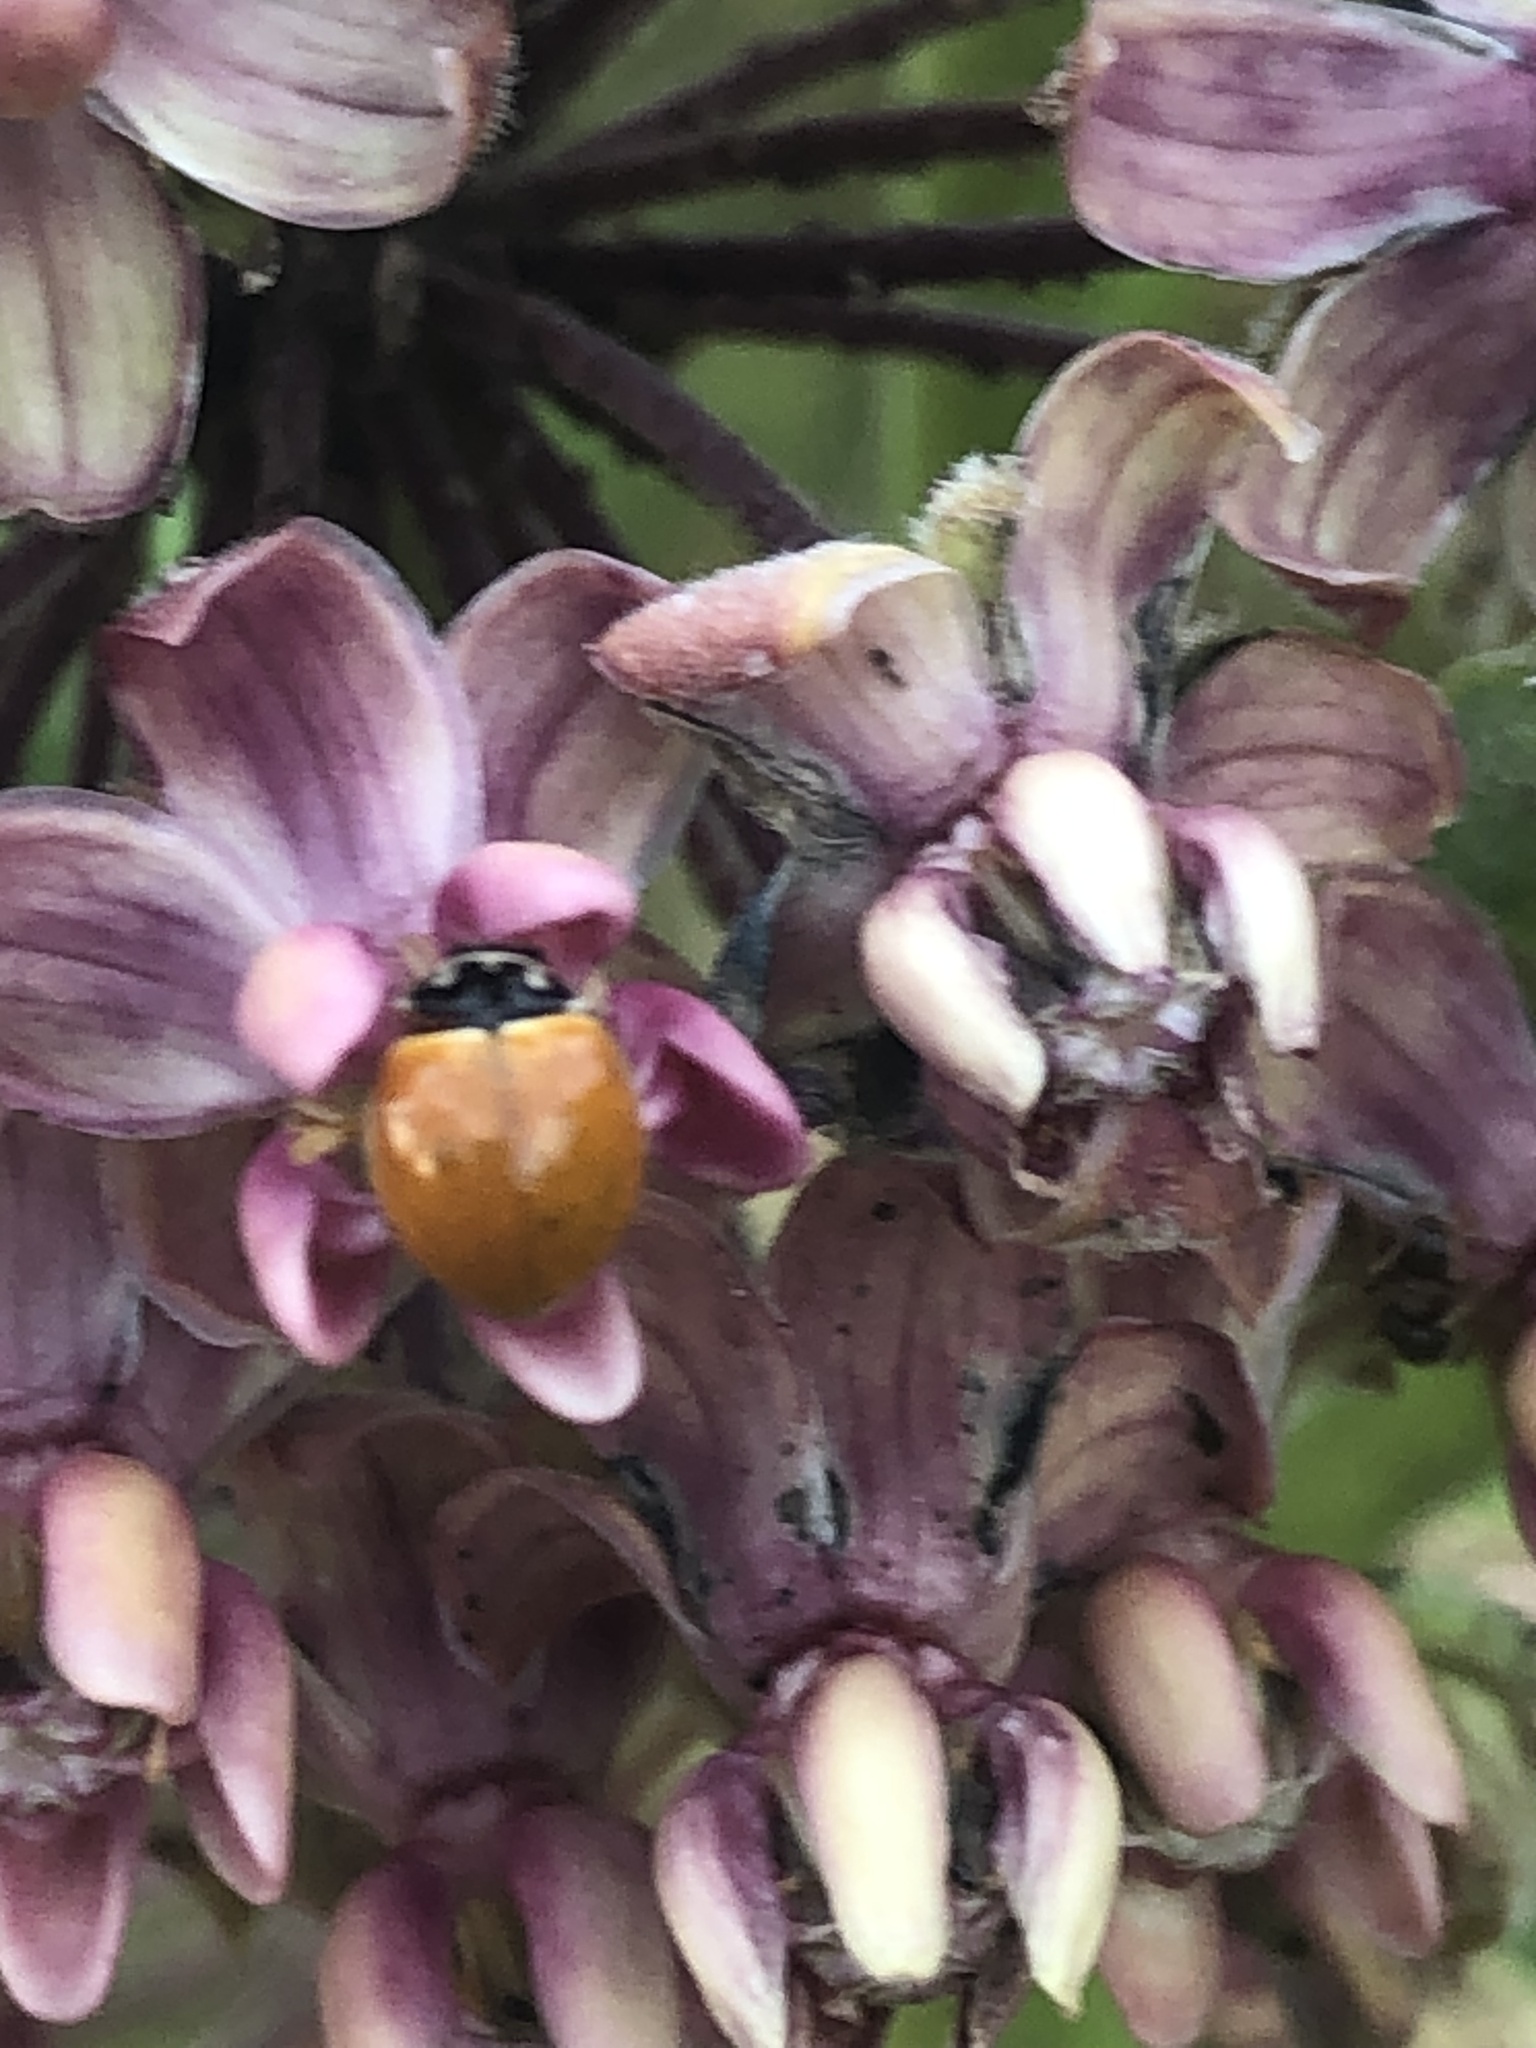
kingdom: Animalia
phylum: Arthropoda
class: Insecta
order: Coleoptera
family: Coccinellidae
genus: Cycloneda
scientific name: Cycloneda munda
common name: Polished lady beetle
